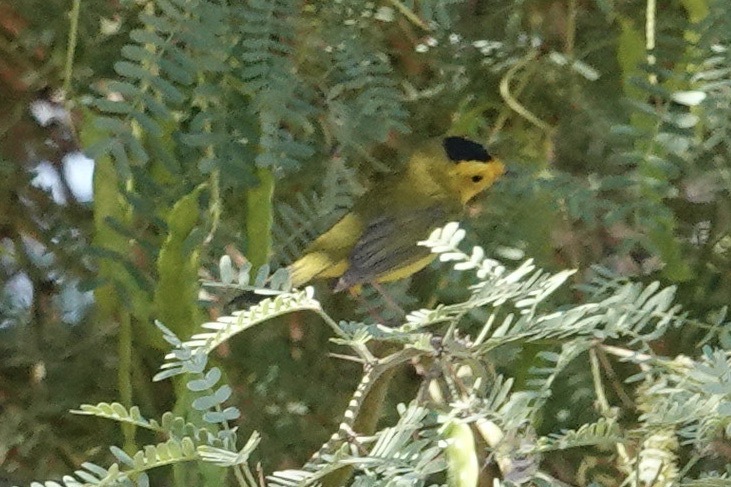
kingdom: Animalia
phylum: Chordata
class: Aves
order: Passeriformes
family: Parulidae
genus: Cardellina
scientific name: Cardellina pusilla
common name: Wilson's warbler
